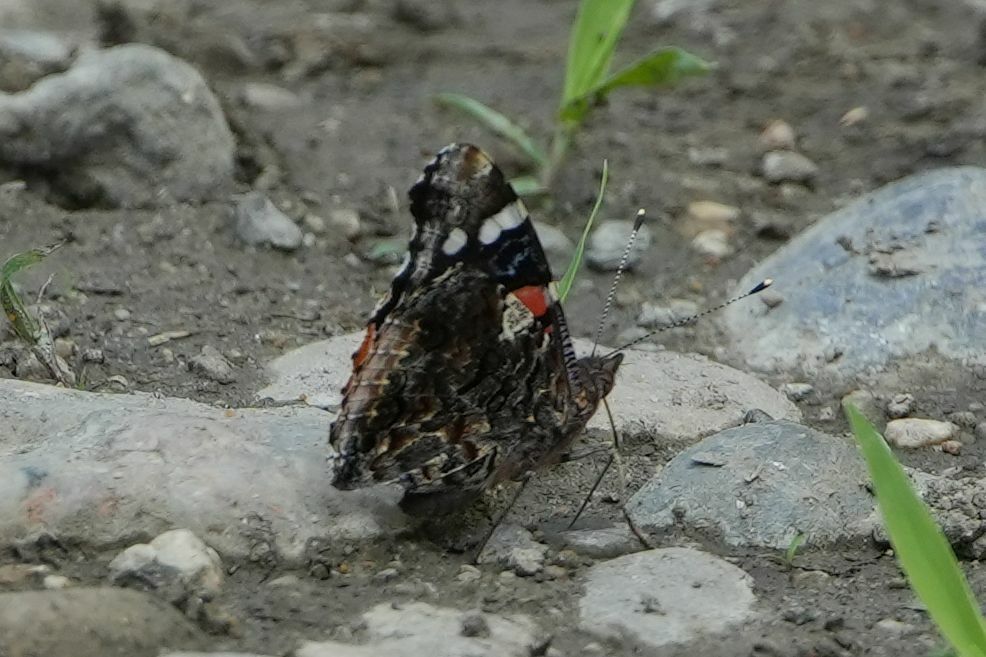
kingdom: Animalia
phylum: Arthropoda
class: Insecta
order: Lepidoptera
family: Nymphalidae
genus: Vanessa
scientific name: Vanessa atalanta
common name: Red admiral
